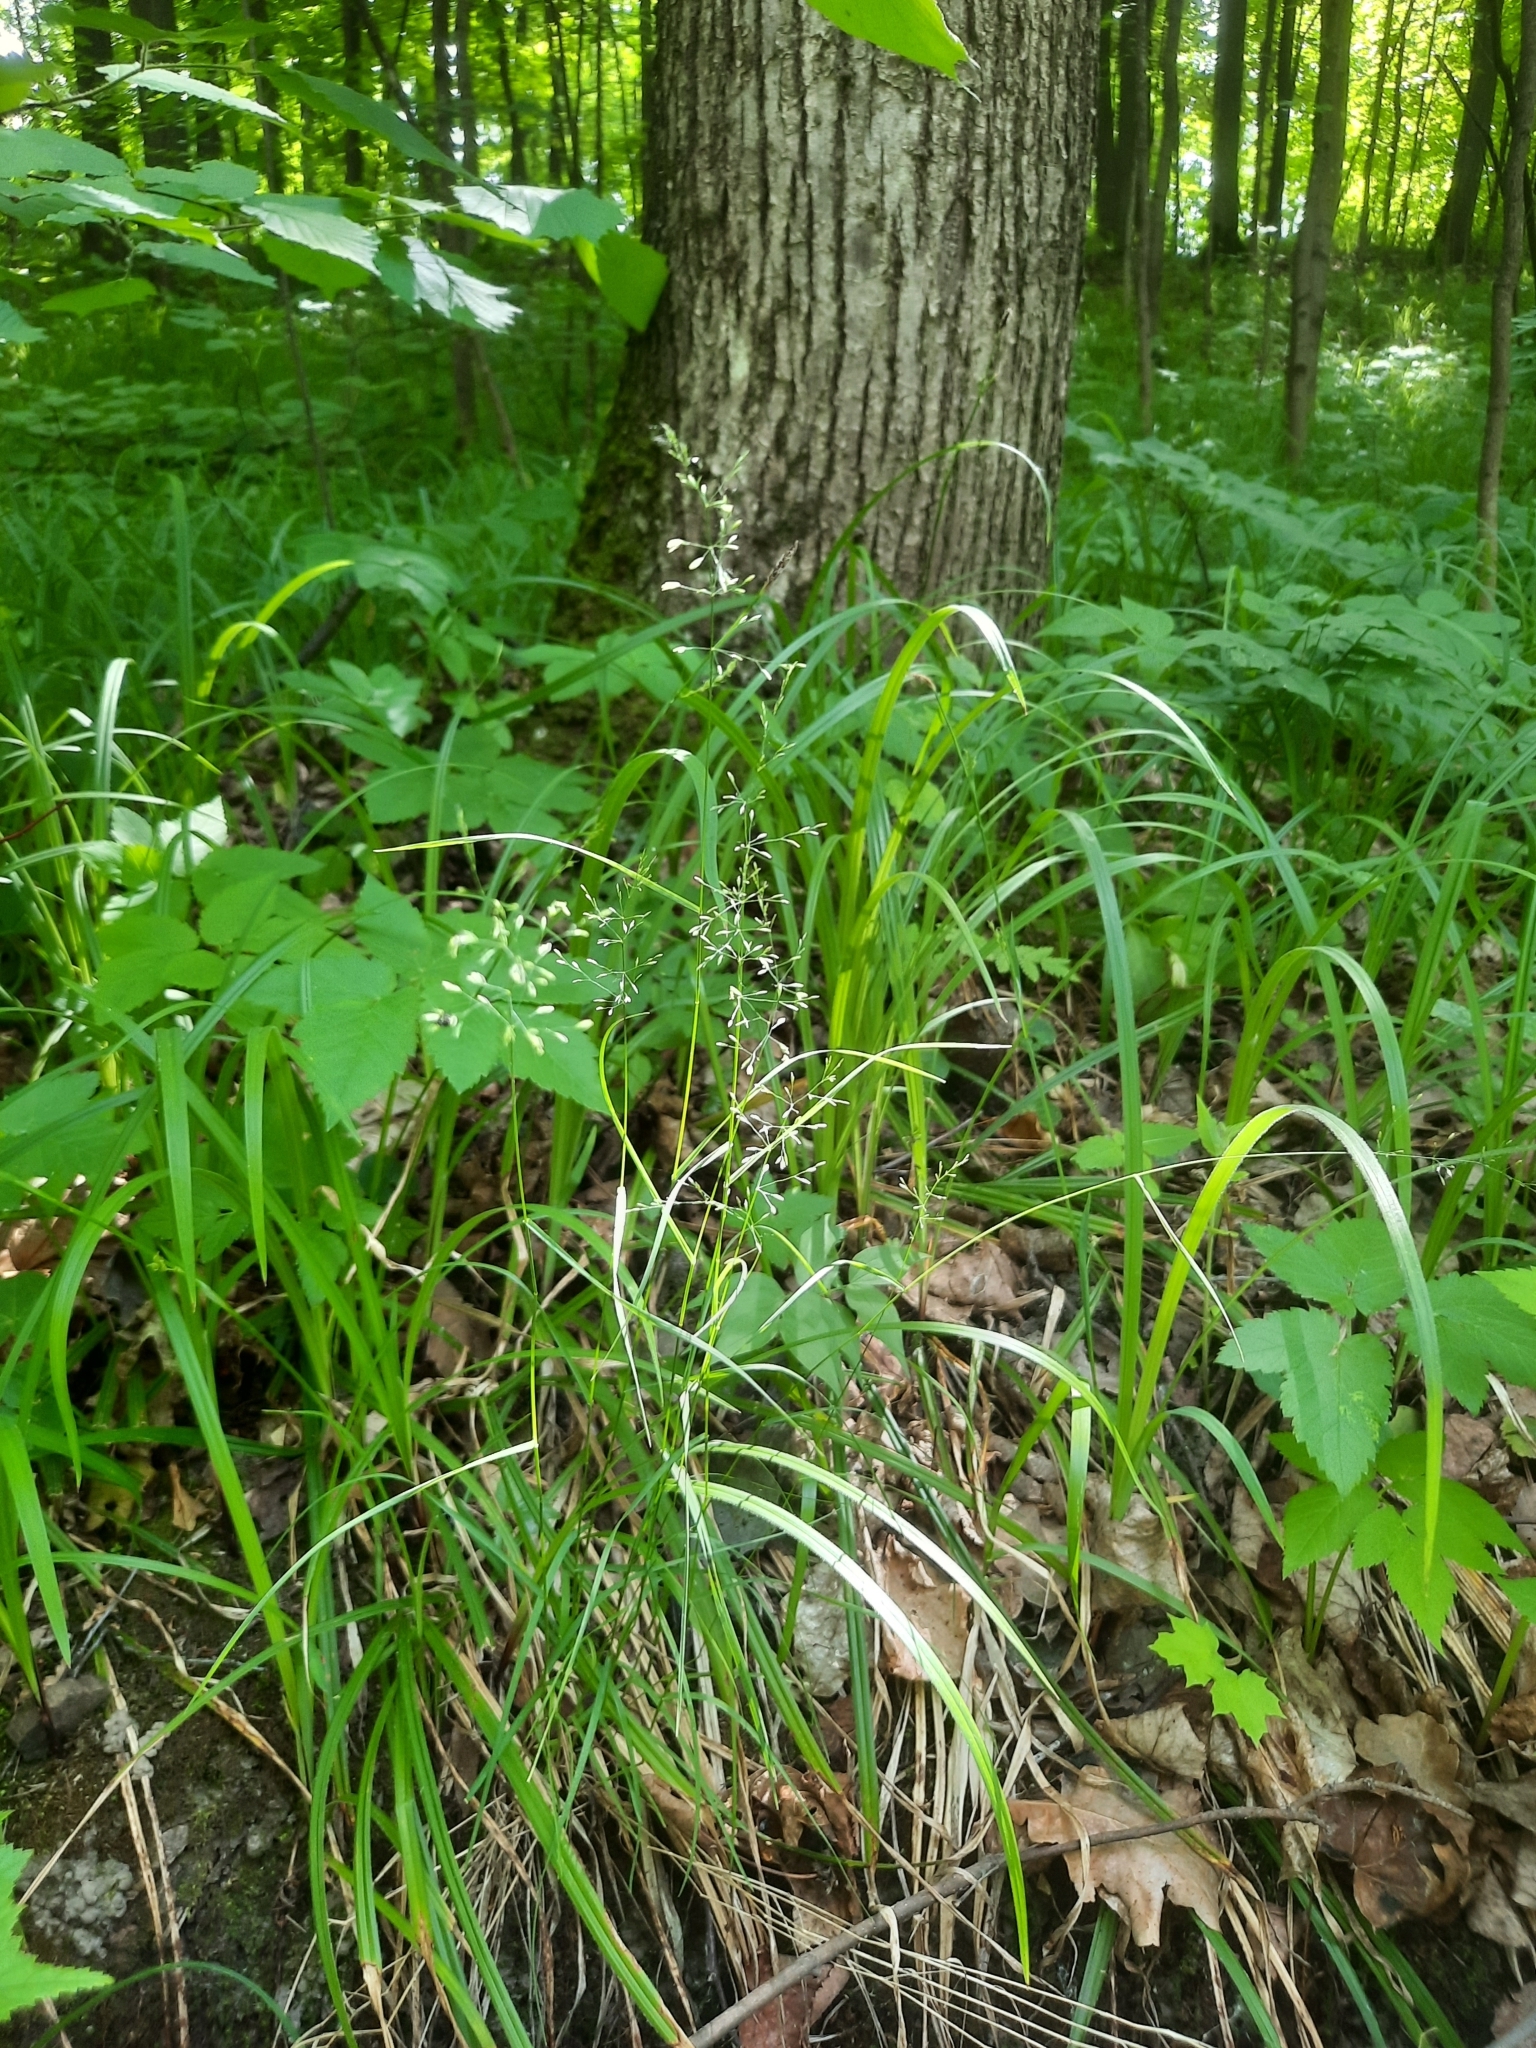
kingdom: Plantae
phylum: Tracheophyta
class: Liliopsida
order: Poales
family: Poaceae
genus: Poa
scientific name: Poa nemoralis
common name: Wood bluegrass
